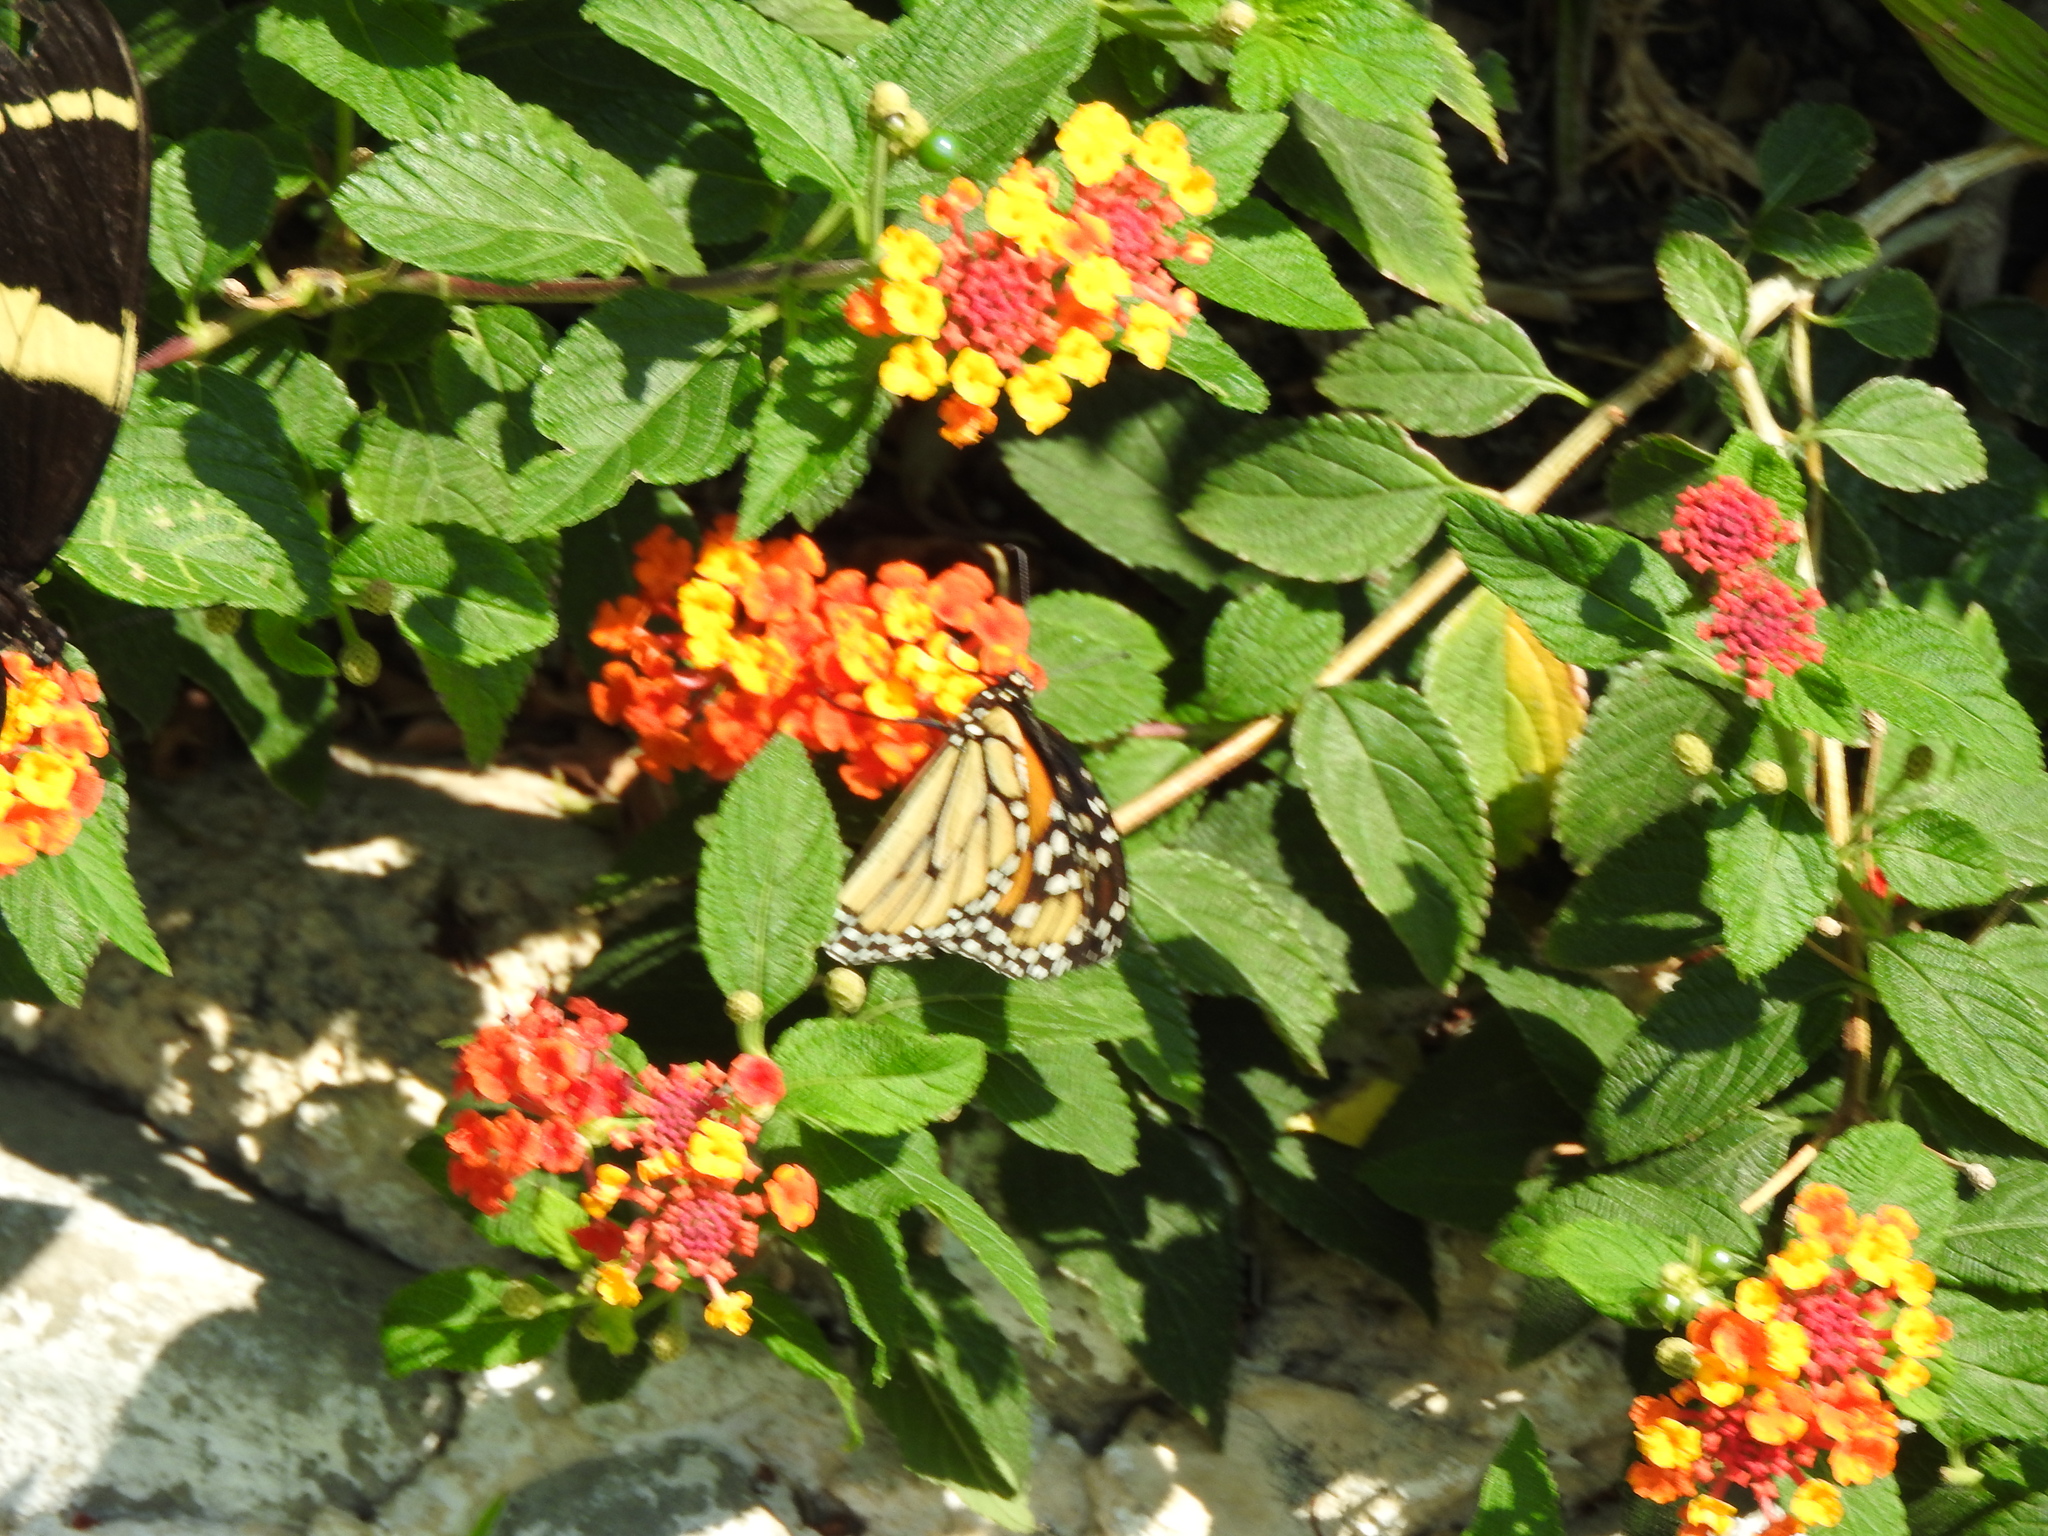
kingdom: Animalia
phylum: Arthropoda
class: Insecta
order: Lepidoptera
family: Nymphalidae
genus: Danaus
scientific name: Danaus plexippus
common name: Monarch
